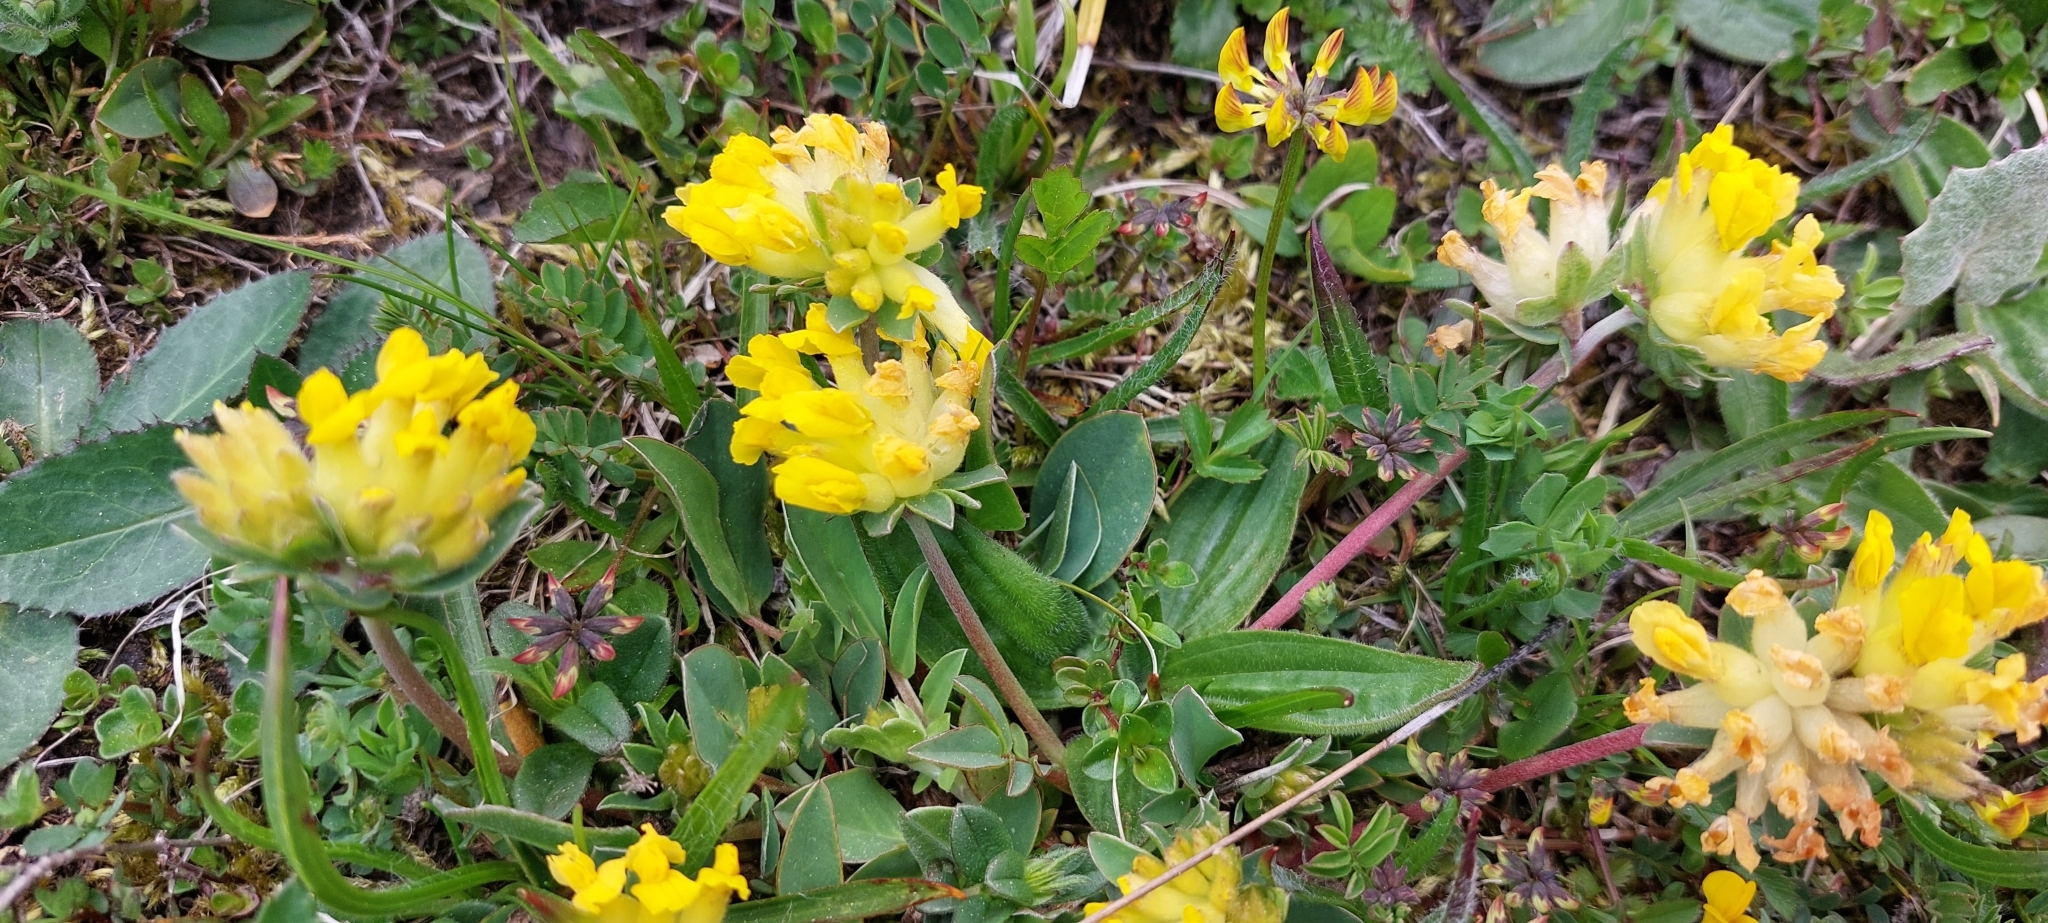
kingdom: Plantae
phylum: Tracheophyta
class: Magnoliopsida
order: Fabales
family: Fabaceae
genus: Anthyllis
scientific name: Anthyllis vulneraria
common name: Kidney vetch
